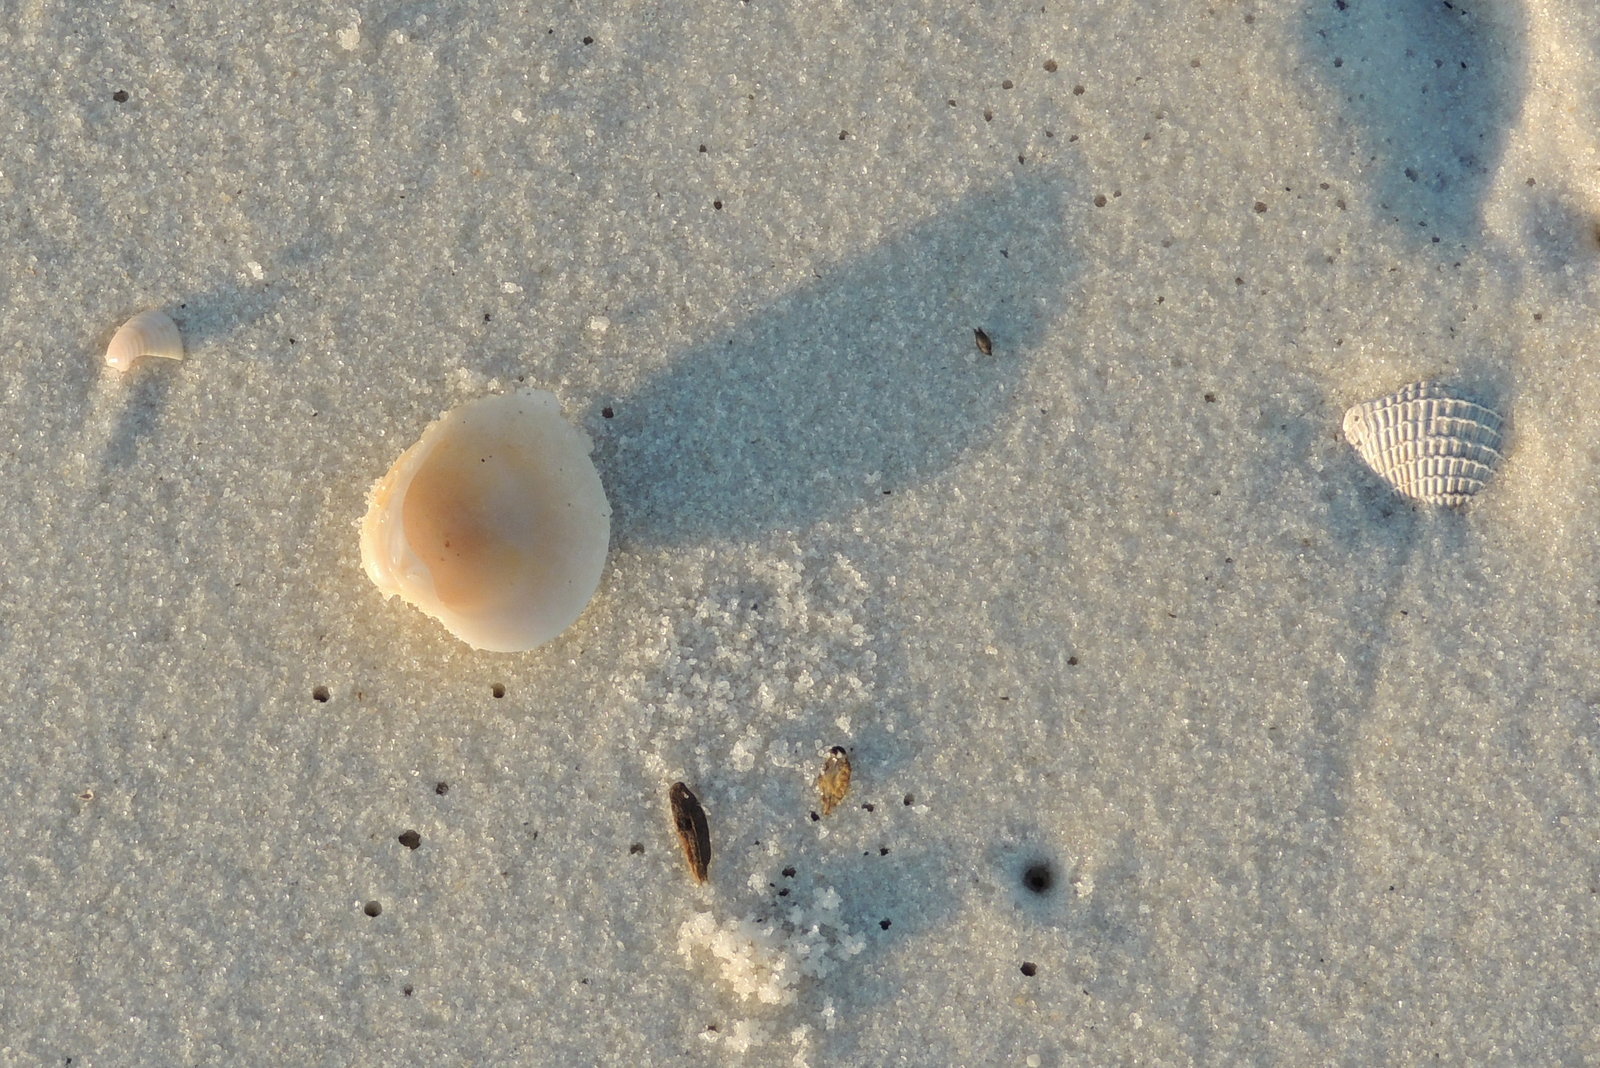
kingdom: Animalia
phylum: Mollusca
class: Bivalvia
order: Venerida
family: Veneridae
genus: Chionopsis
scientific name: Chionopsis intapurpurea
